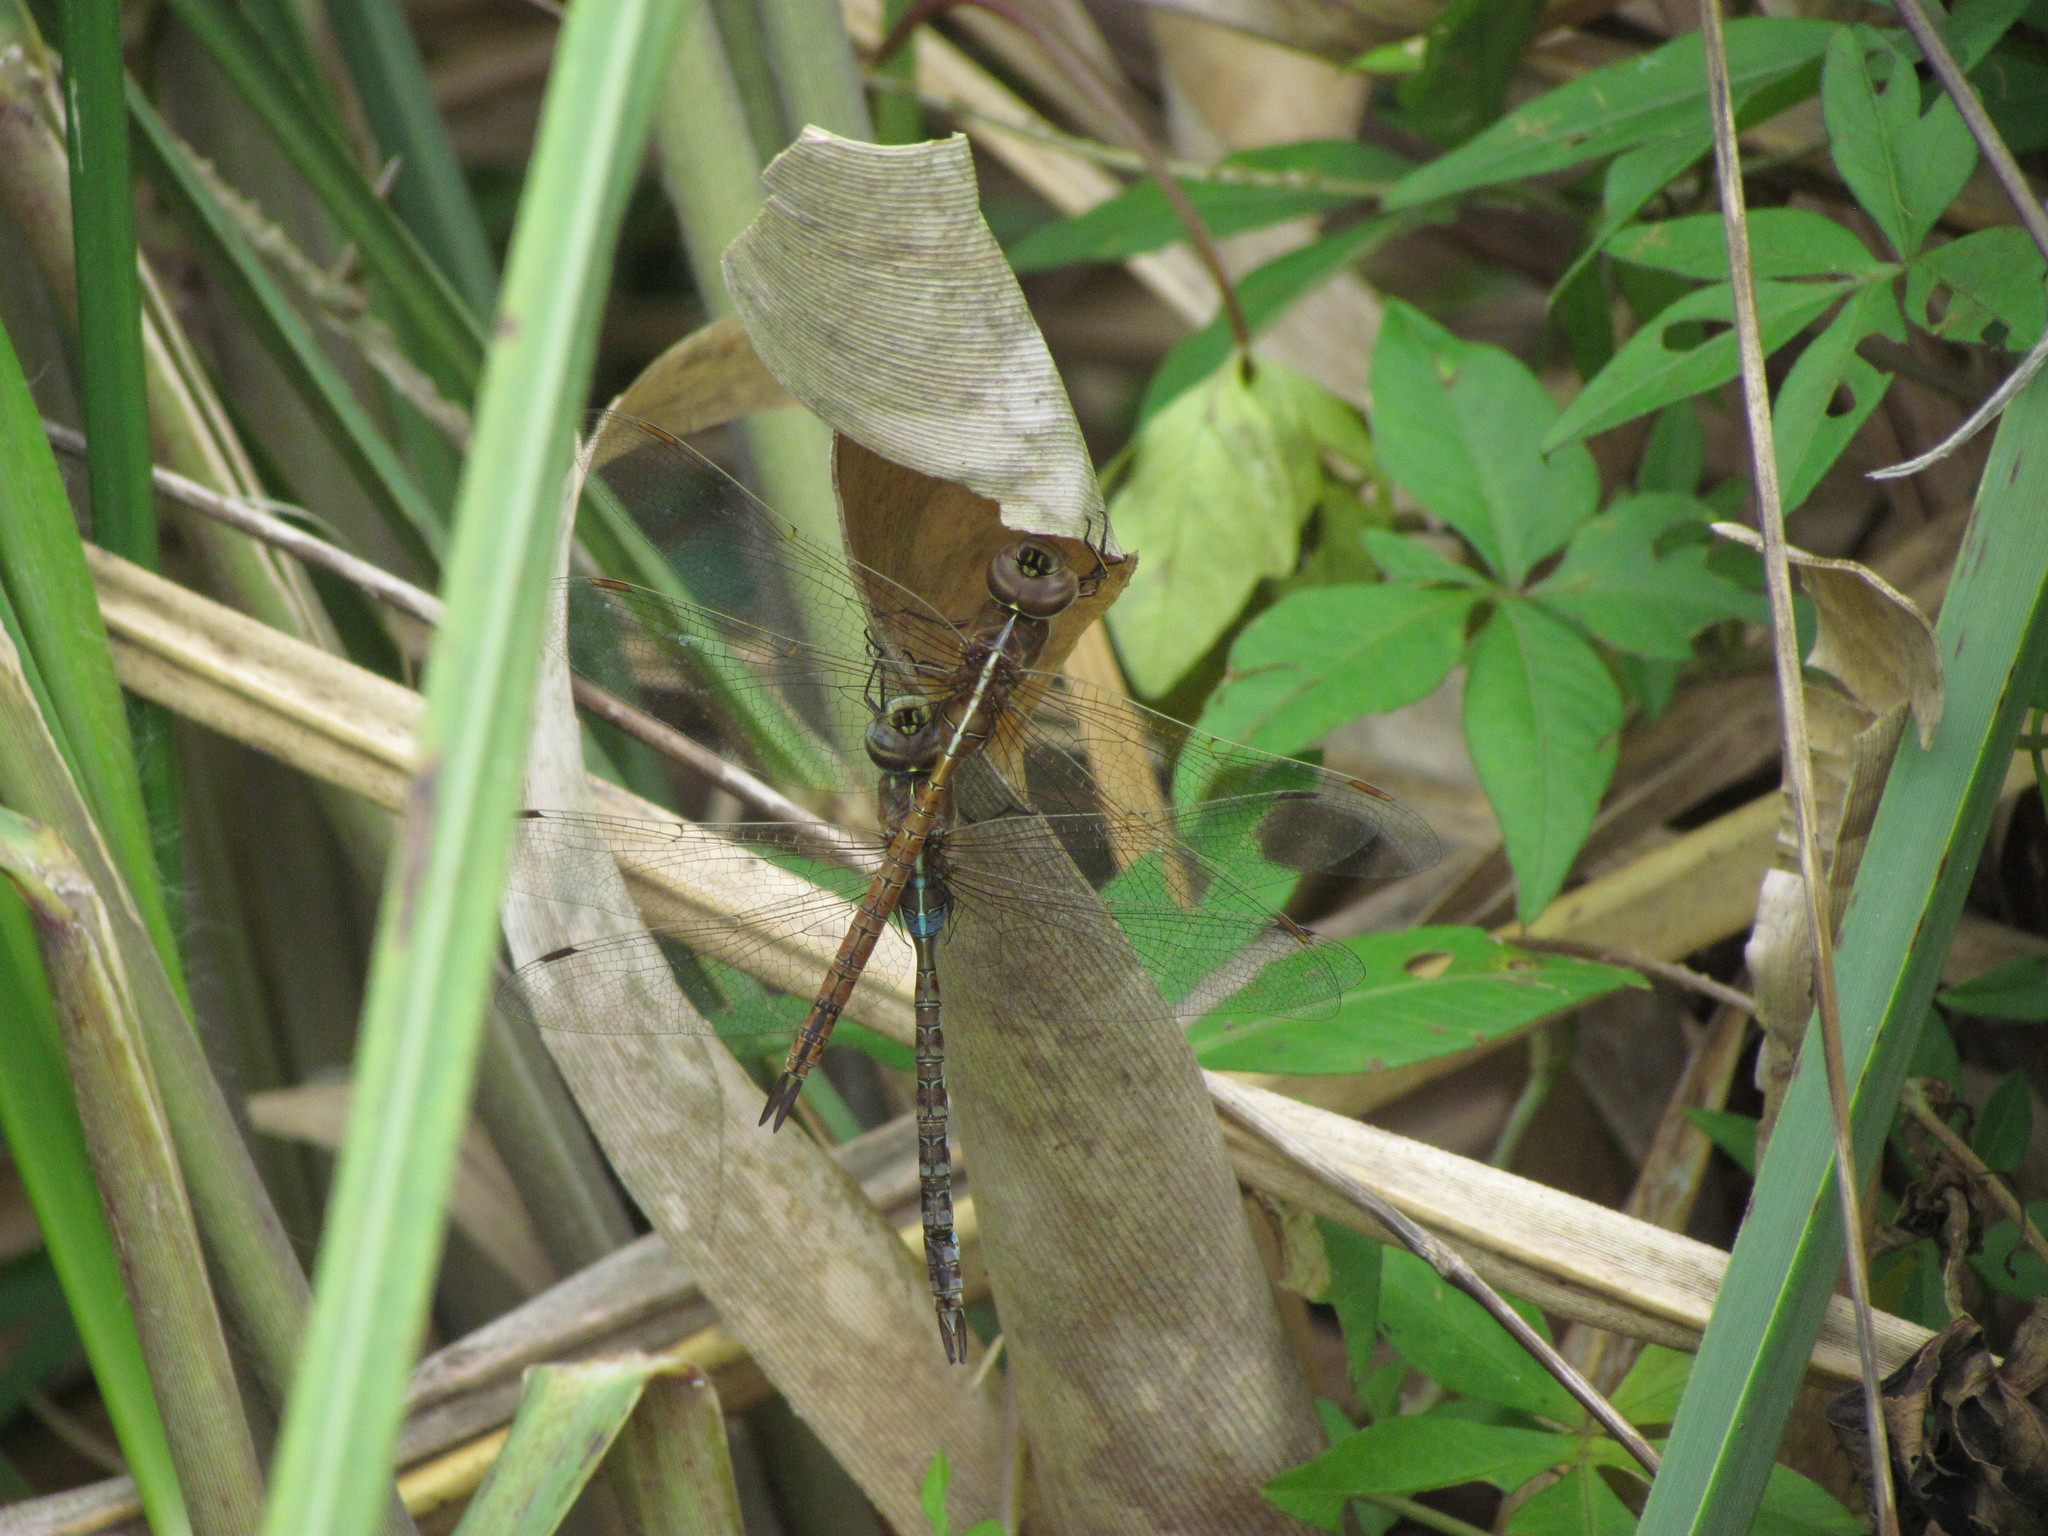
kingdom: Animalia
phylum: Arthropoda
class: Insecta
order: Odonata
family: Aeshnidae
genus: Rhionaeschna
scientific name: Rhionaeschna bonariensis
